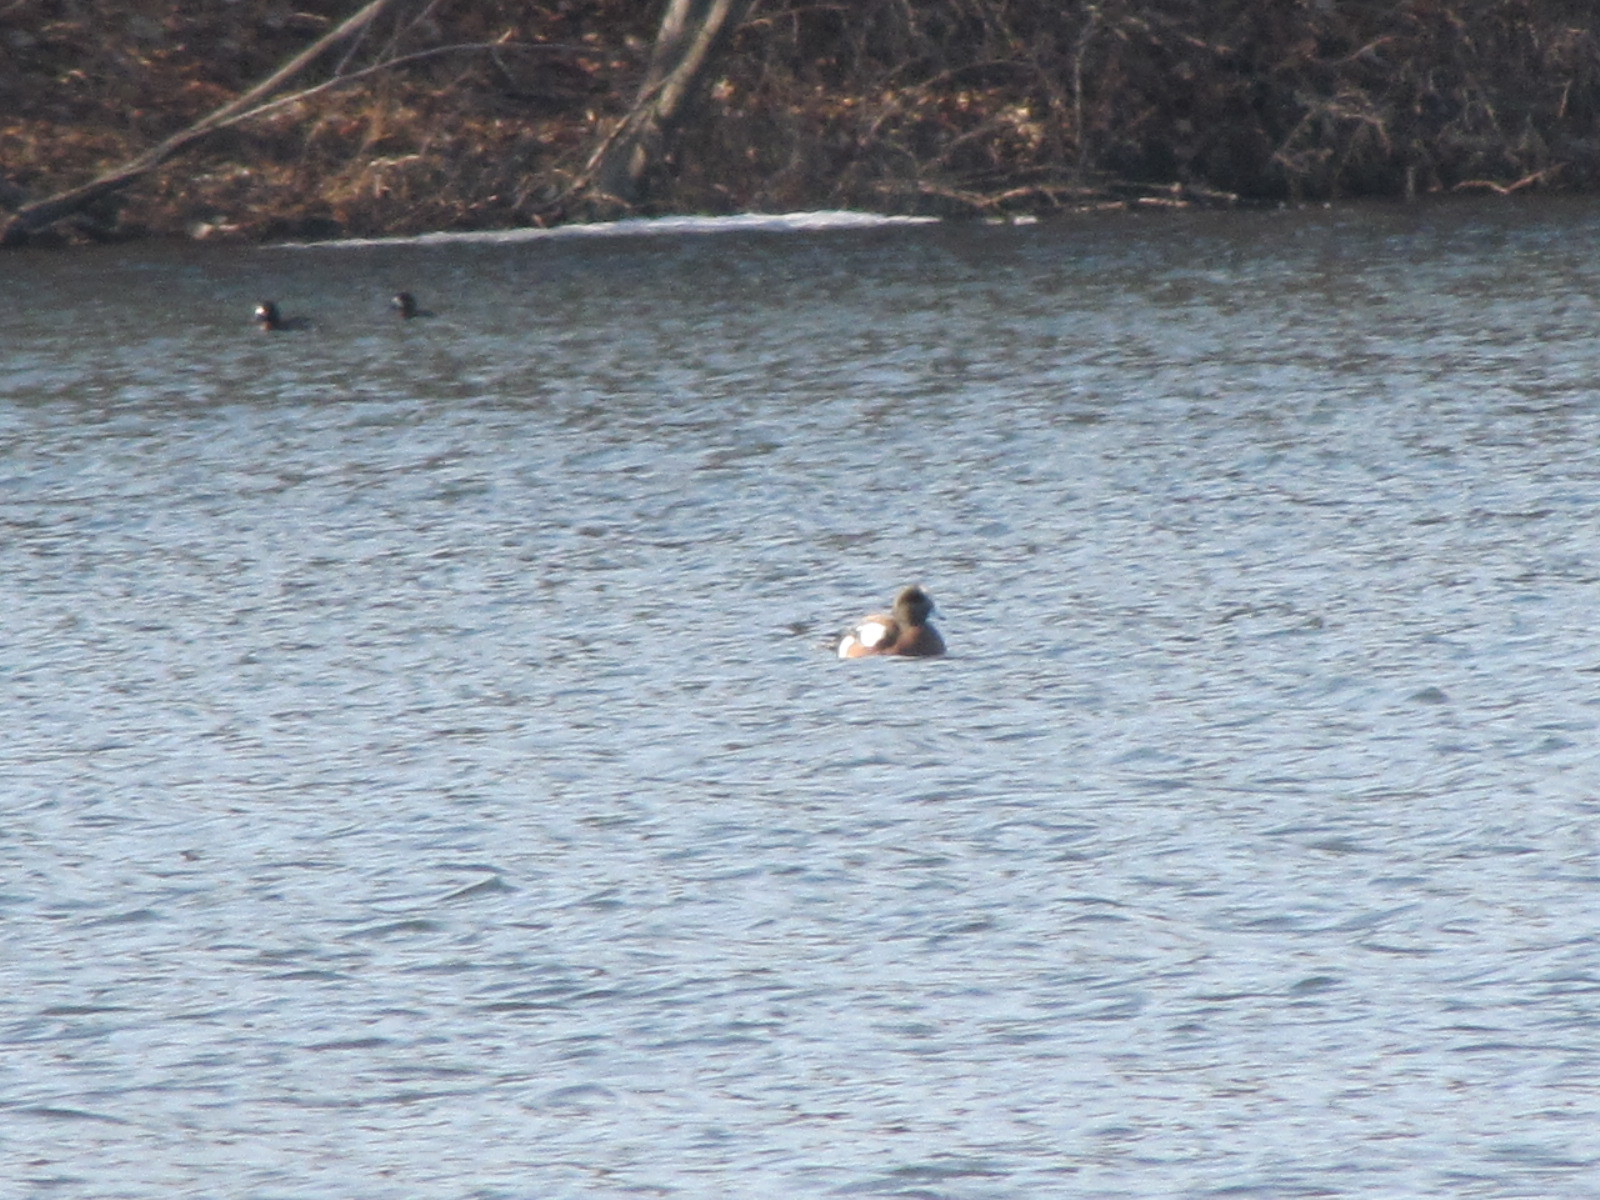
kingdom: Animalia
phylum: Chordata
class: Aves
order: Anseriformes
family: Anatidae
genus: Mareca
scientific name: Mareca americana
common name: American wigeon
